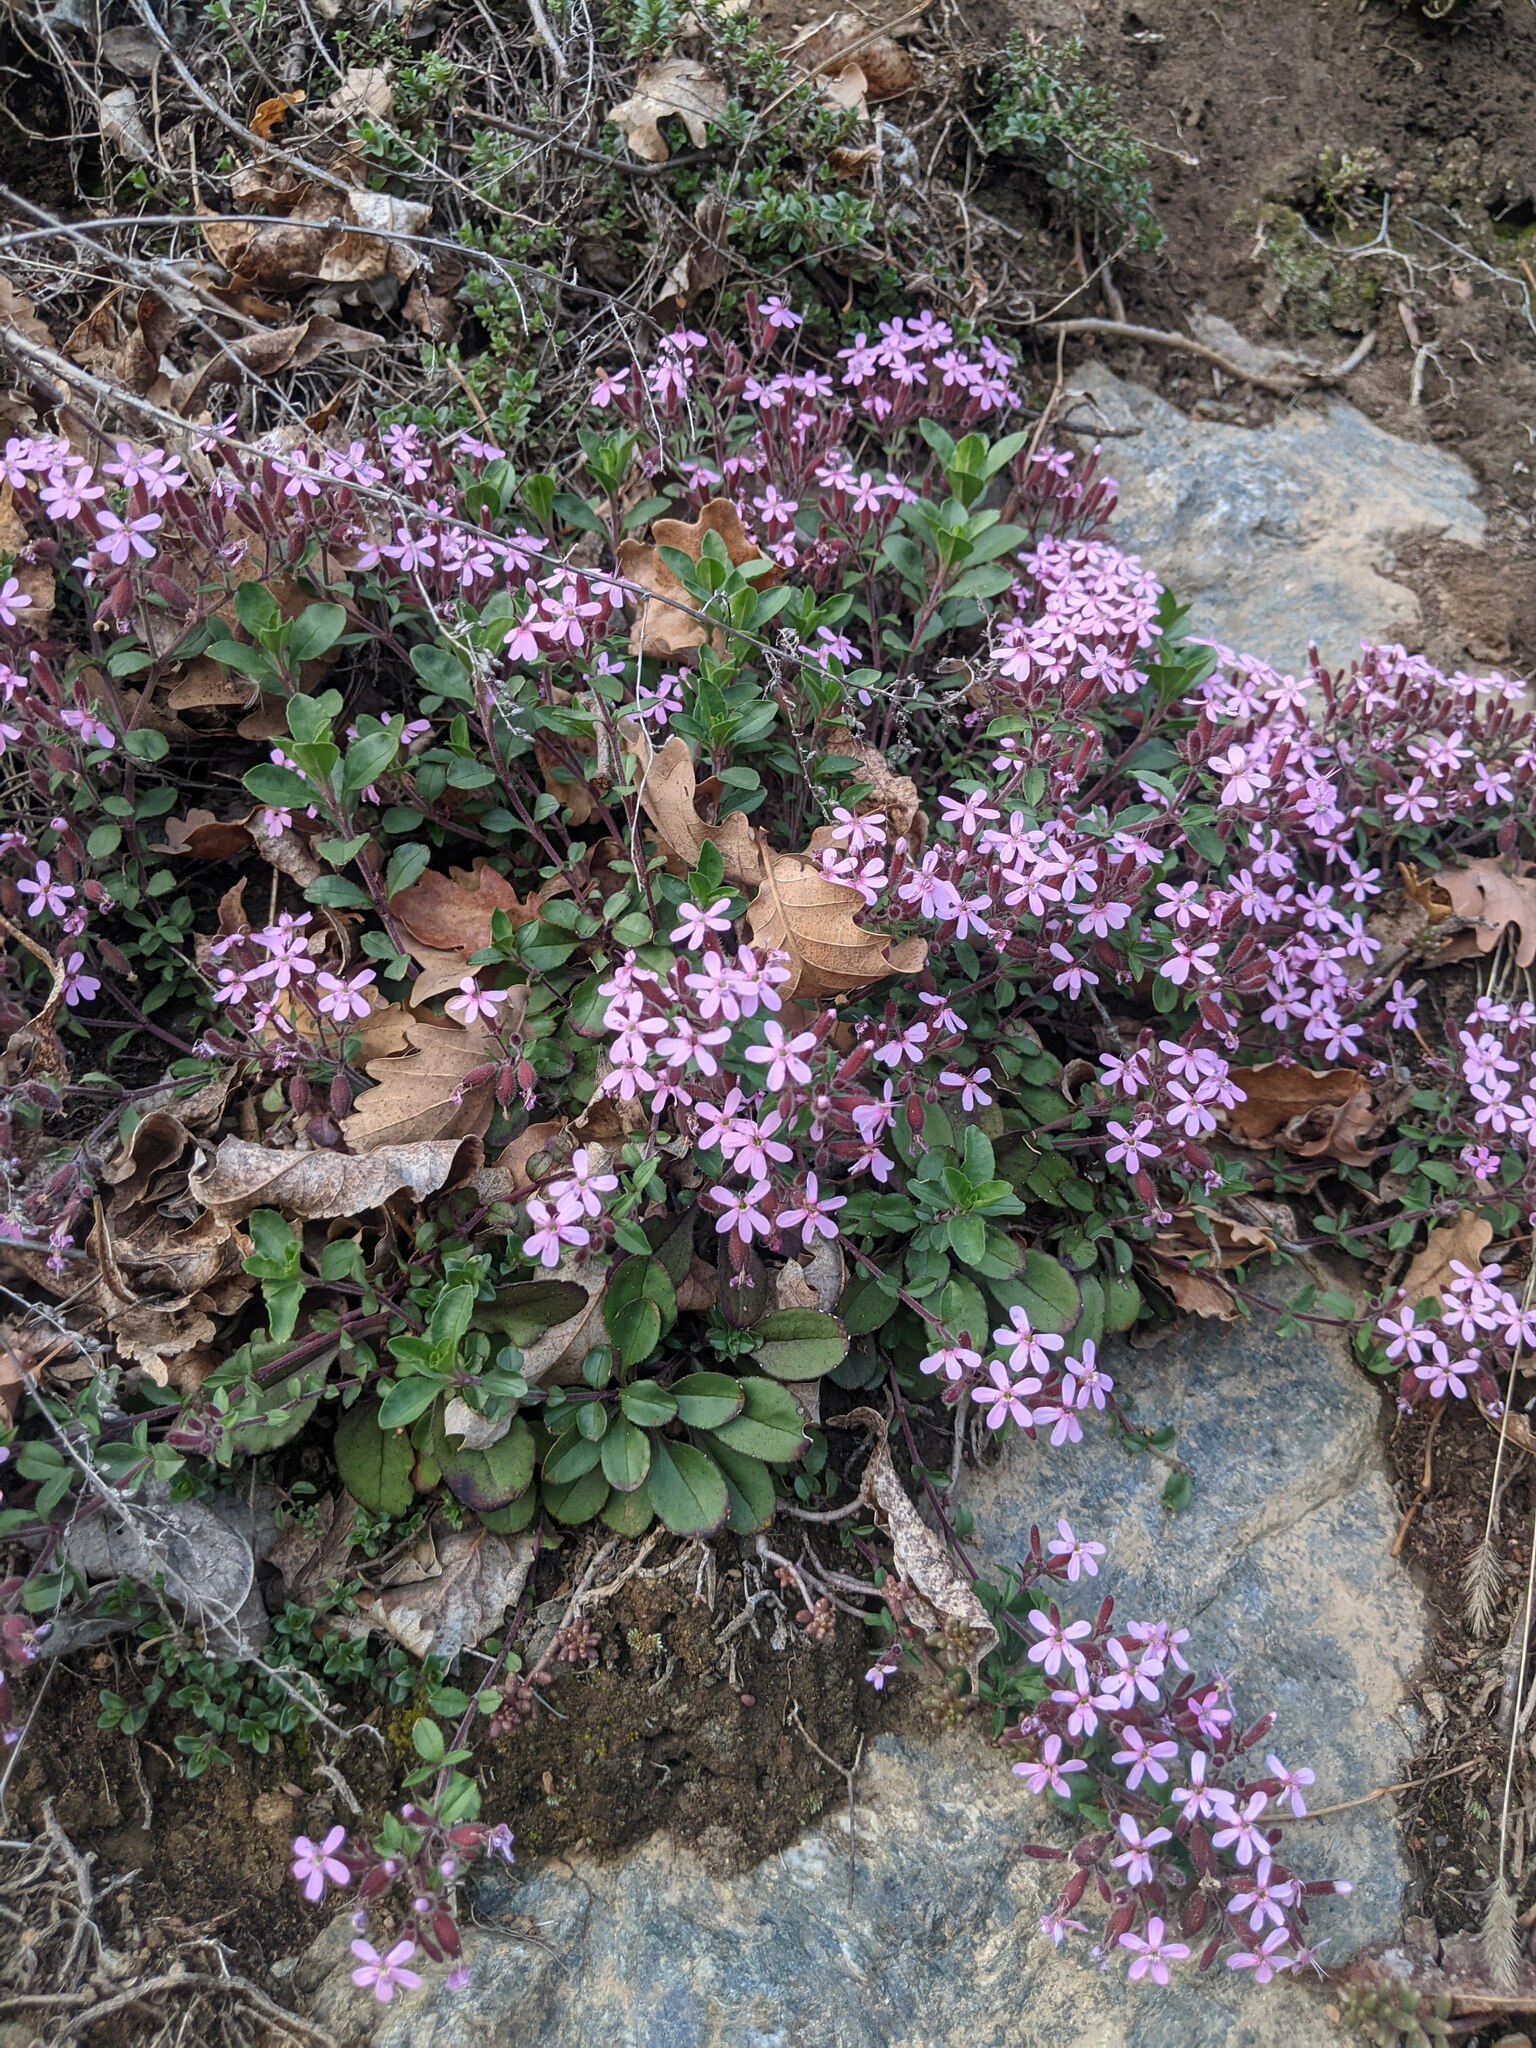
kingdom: Plantae
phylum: Tracheophyta
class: Magnoliopsida
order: Caryophyllales
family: Caryophyllaceae
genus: Saponaria
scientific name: Saponaria ocymoides
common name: Rock soapwort
